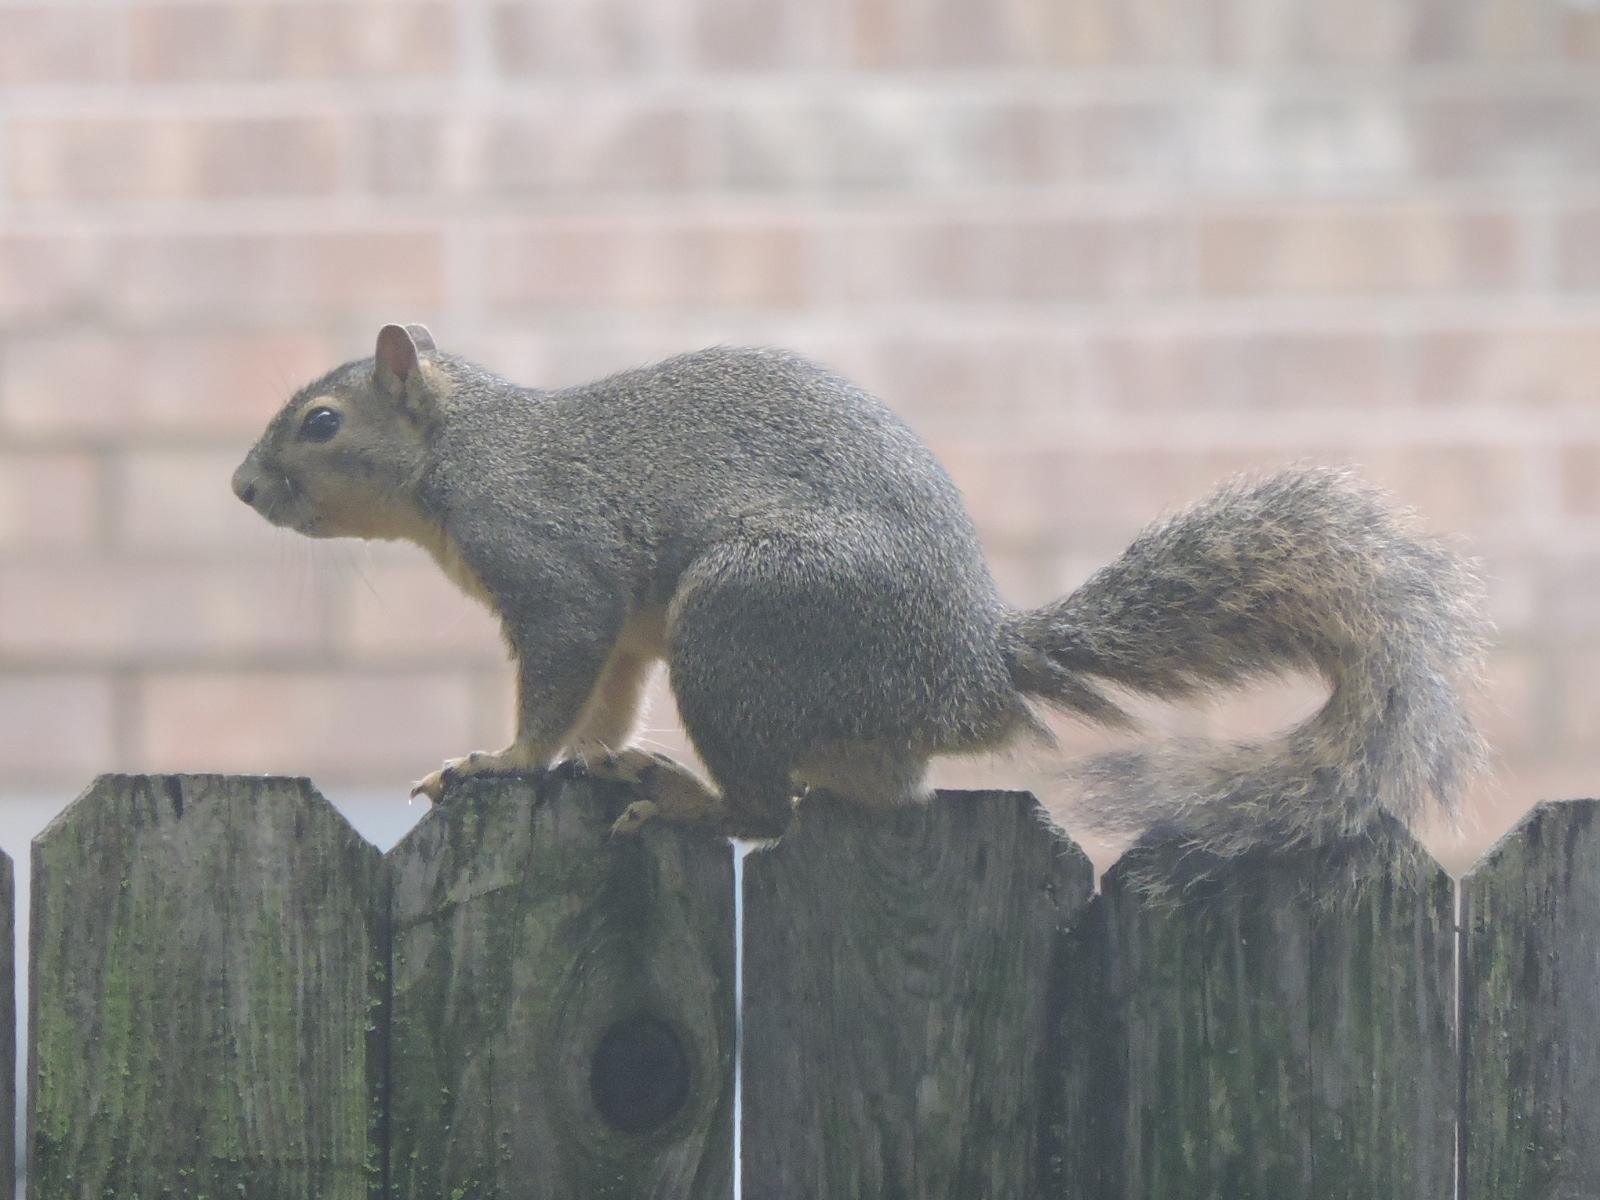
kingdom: Animalia
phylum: Chordata
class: Mammalia
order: Rodentia
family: Sciuridae
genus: Sciurus
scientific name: Sciurus niger
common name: Fox squirrel
